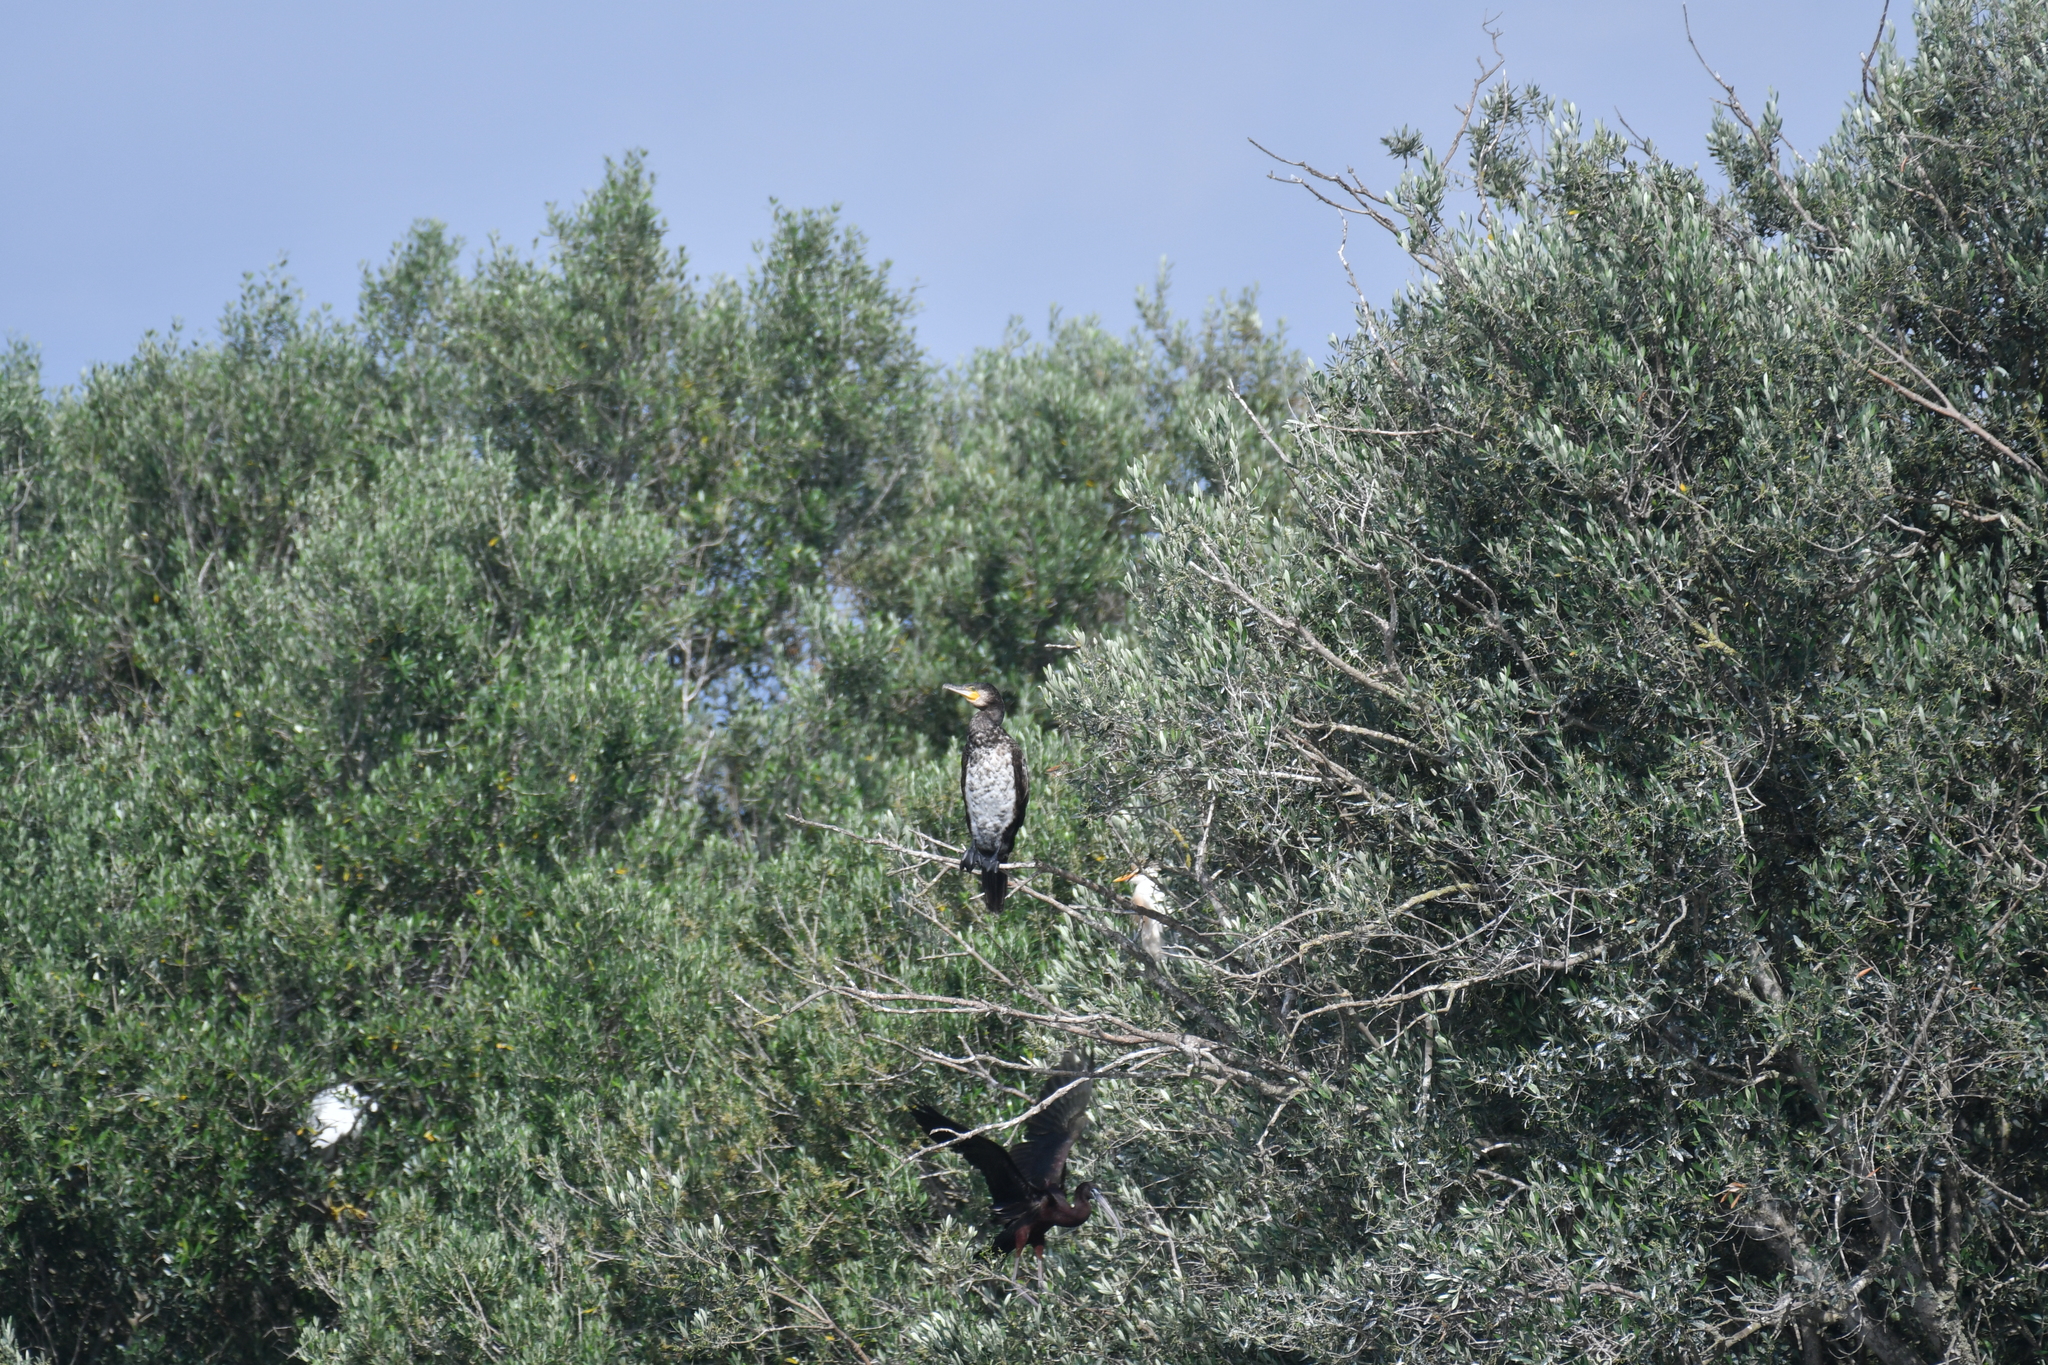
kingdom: Animalia
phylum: Chordata
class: Aves
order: Suliformes
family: Phalacrocoracidae
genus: Phalacrocorax
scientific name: Phalacrocorax carbo
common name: Great cormorant
